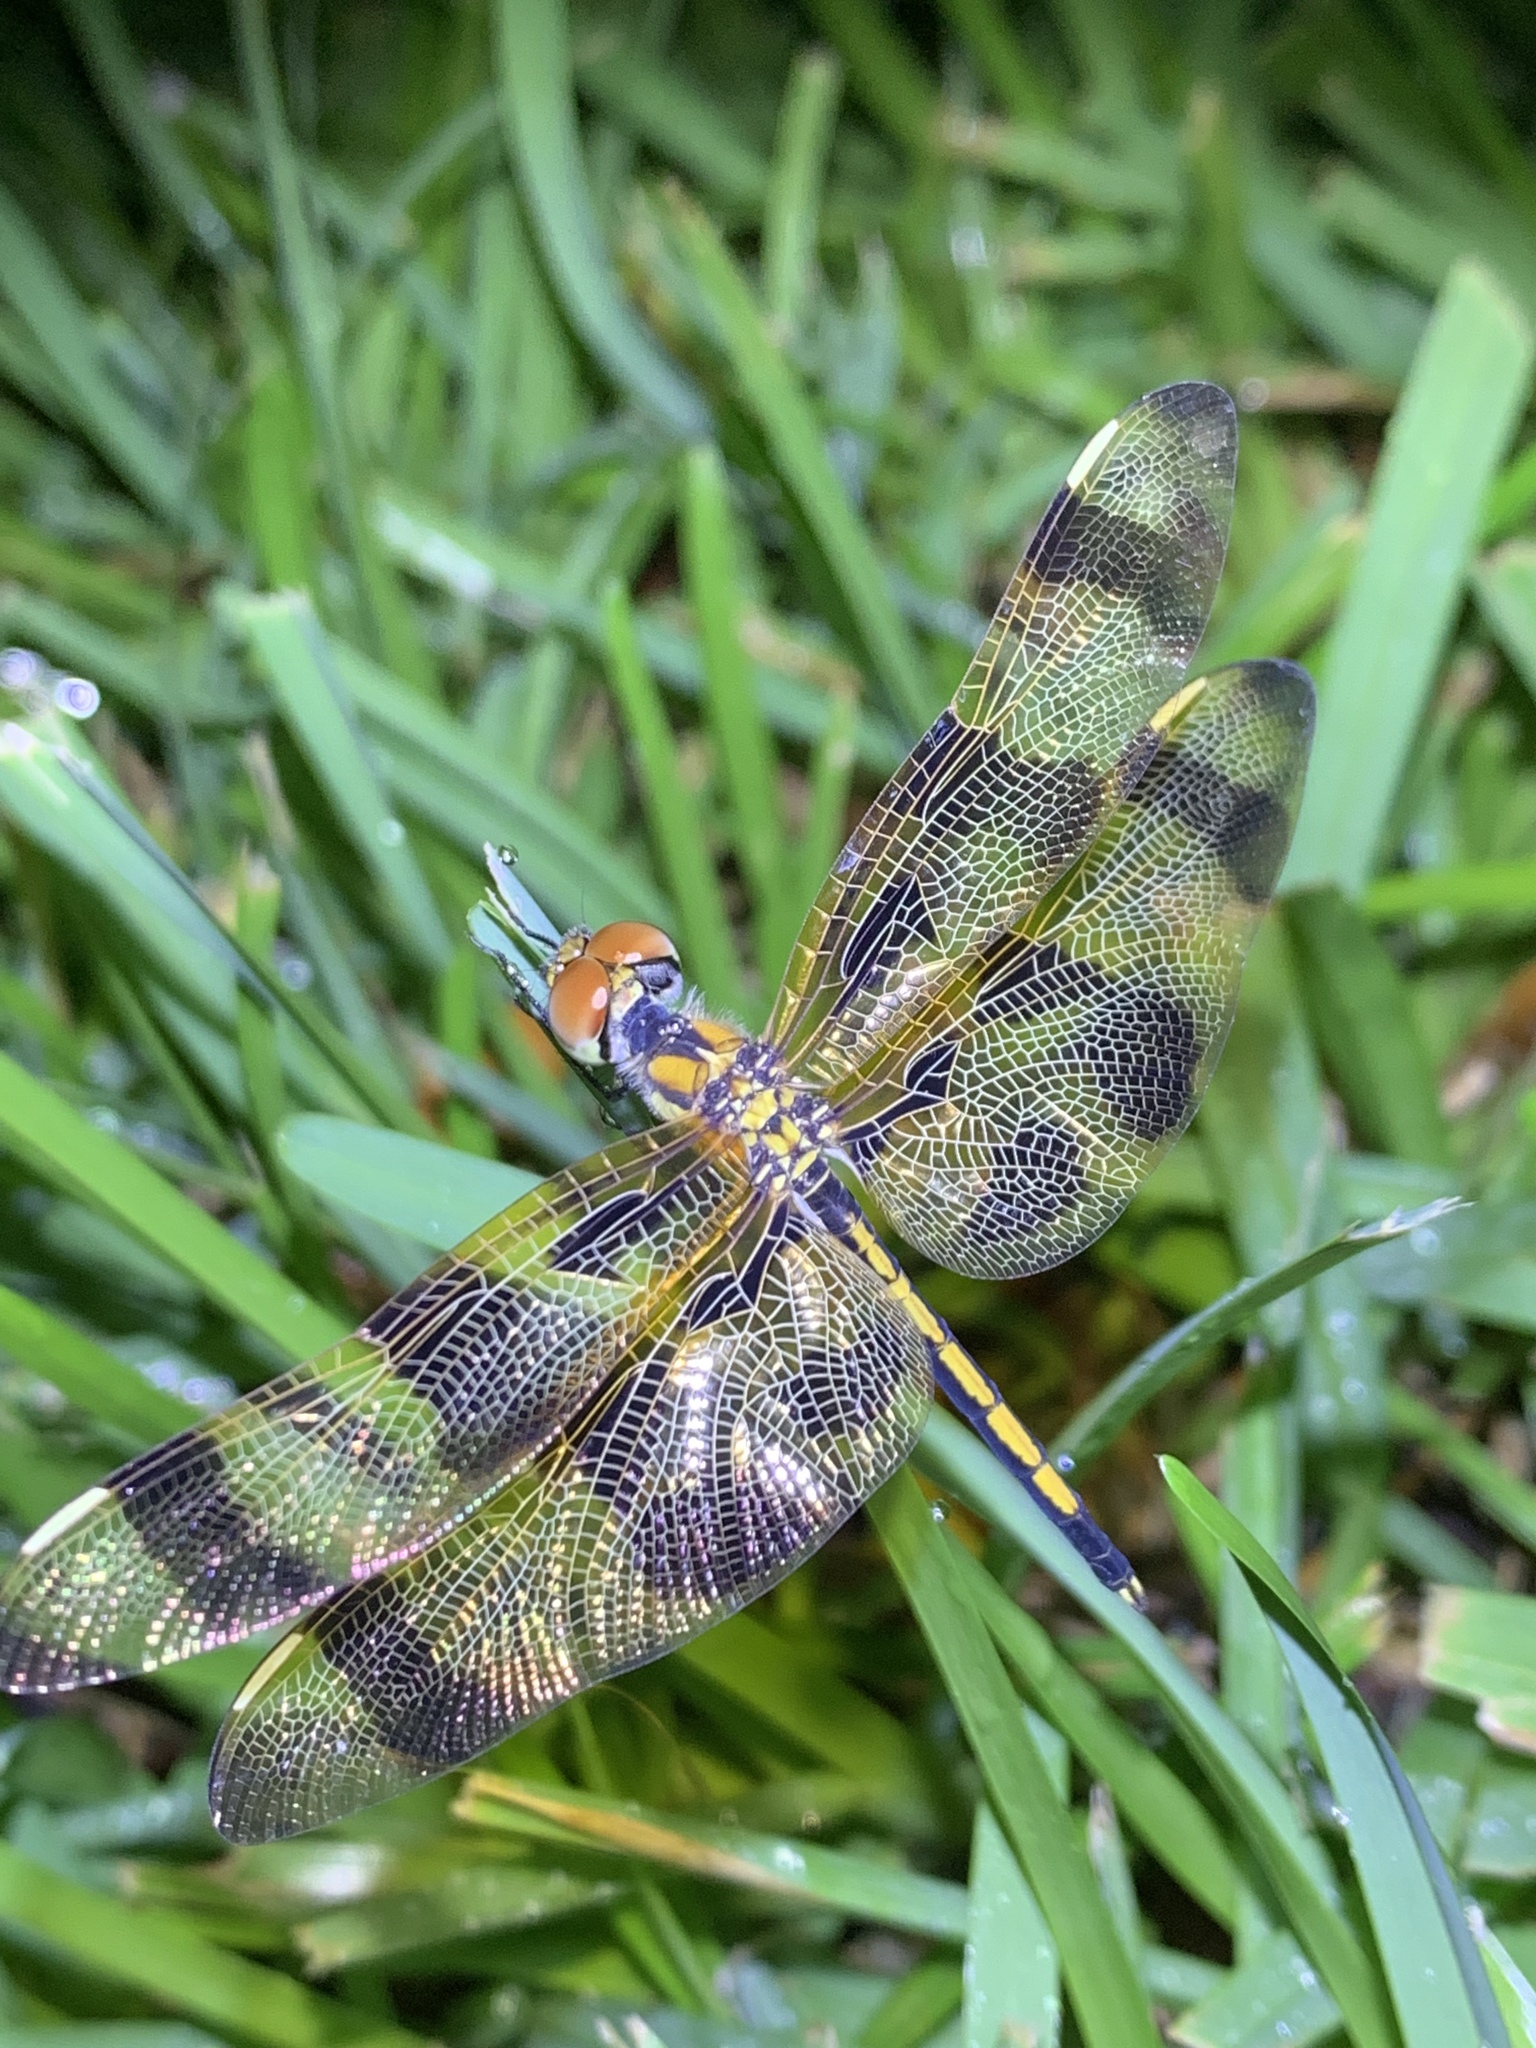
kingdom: Animalia
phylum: Arthropoda
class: Insecta
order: Odonata
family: Libellulidae
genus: Celithemis
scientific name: Celithemis eponina
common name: Halloween pennant
